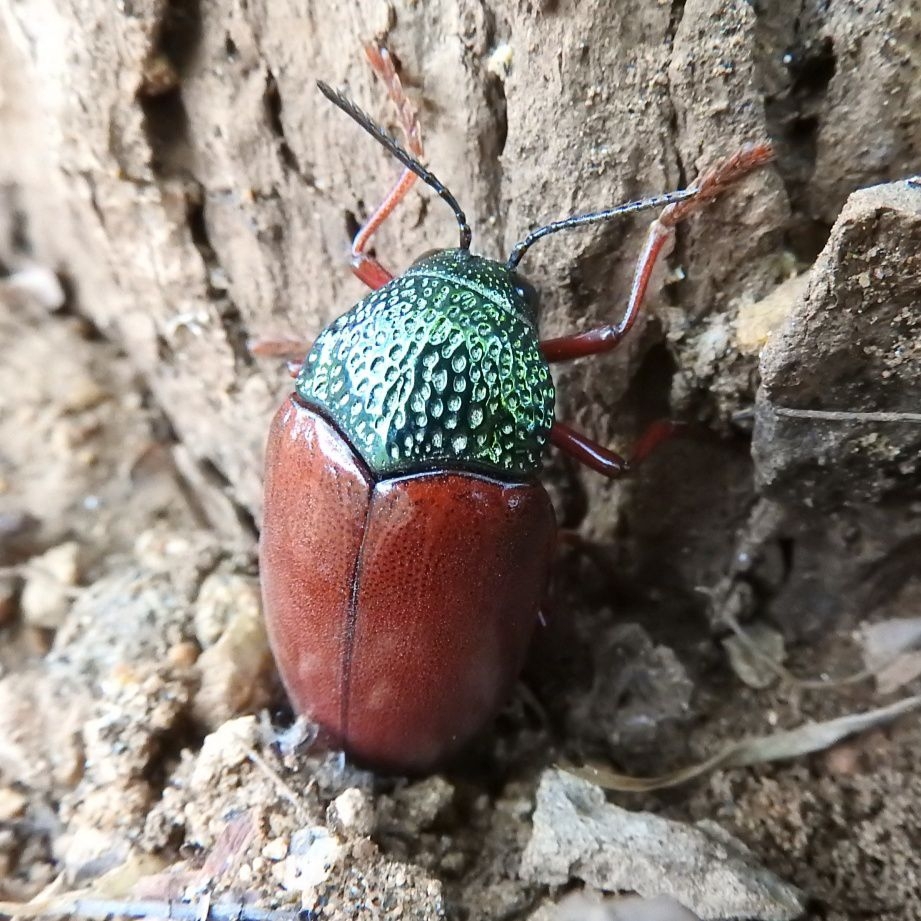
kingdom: Animalia
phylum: Arthropoda
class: Insecta
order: Coleoptera
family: Buprestidae
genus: Sternocera
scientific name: Sternocera chrysis
